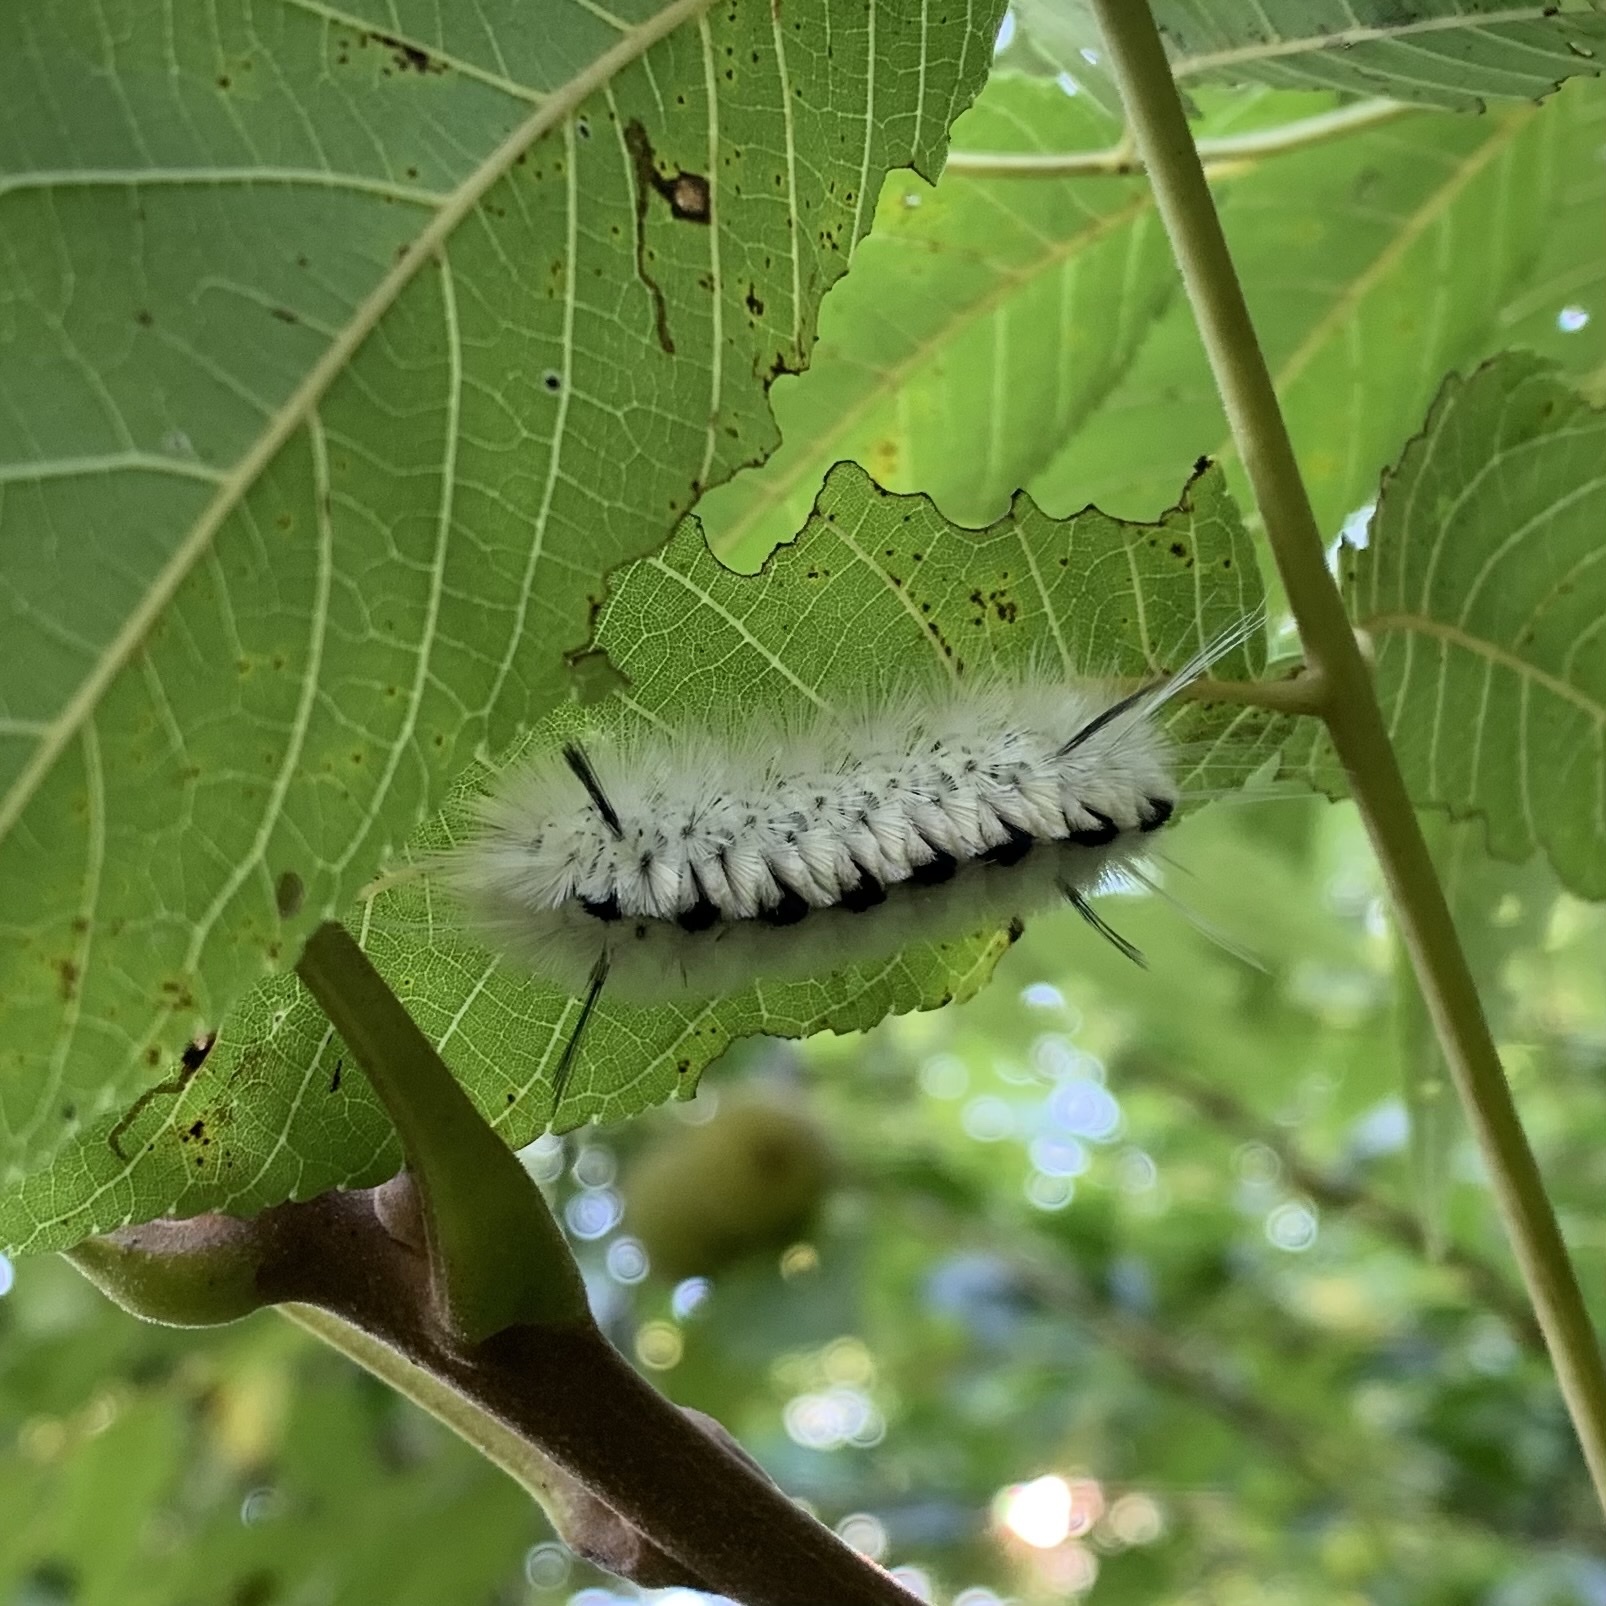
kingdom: Animalia
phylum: Arthropoda
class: Insecta
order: Lepidoptera
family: Erebidae
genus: Lophocampa
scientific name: Lophocampa caryae
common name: Hickory tussock moth
